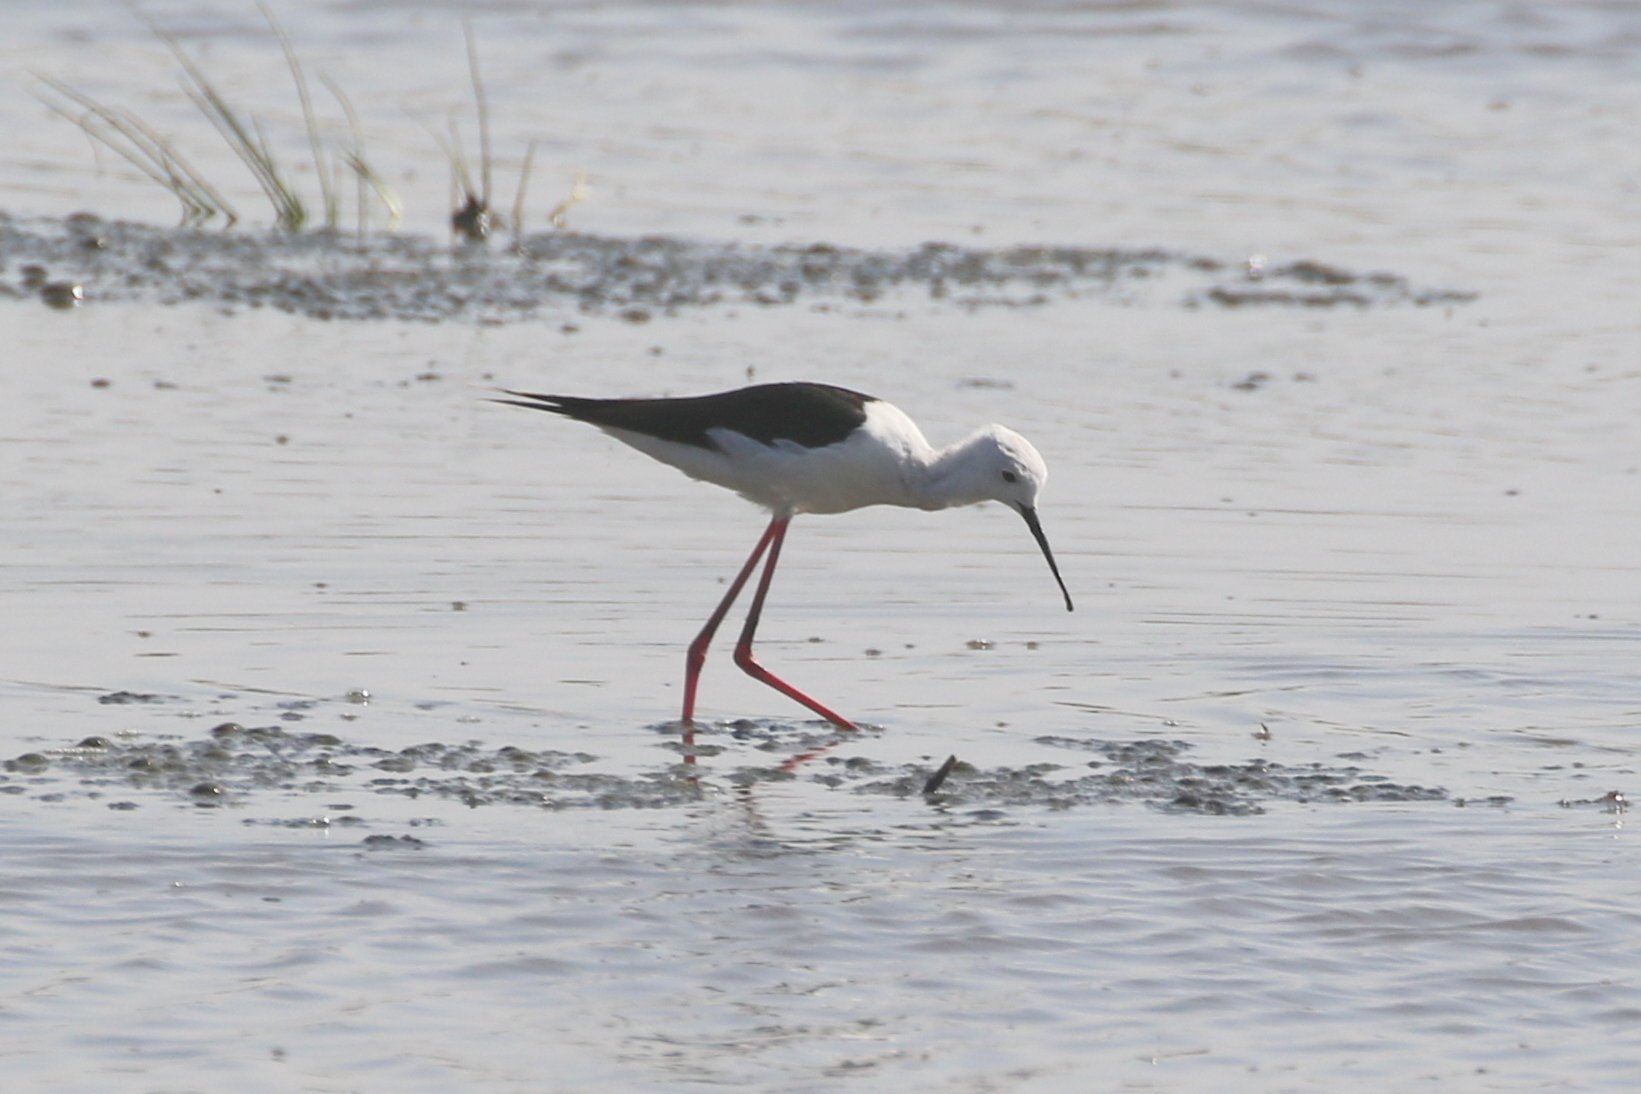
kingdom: Animalia
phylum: Chordata
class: Aves
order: Charadriiformes
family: Recurvirostridae
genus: Himantopus
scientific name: Himantopus himantopus
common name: Black-winged stilt
